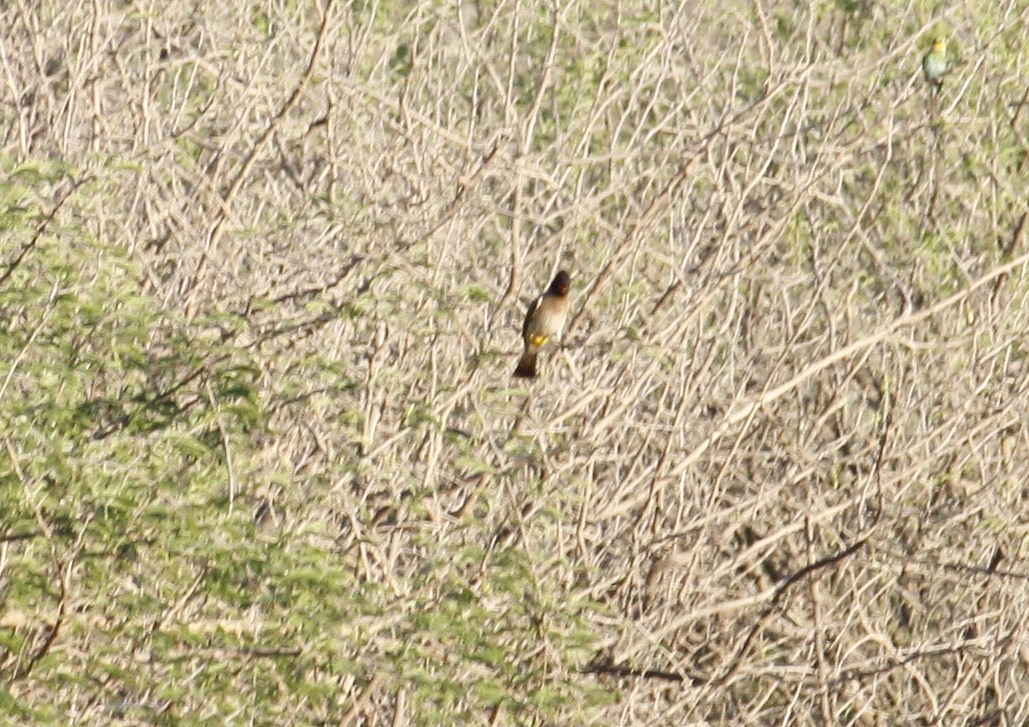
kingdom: Animalia
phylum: Chordata
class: Aves
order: Passeriformes
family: Pycnonotidae
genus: Pycnonotus
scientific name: Pycnonotus barbatus
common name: Common bulbul
